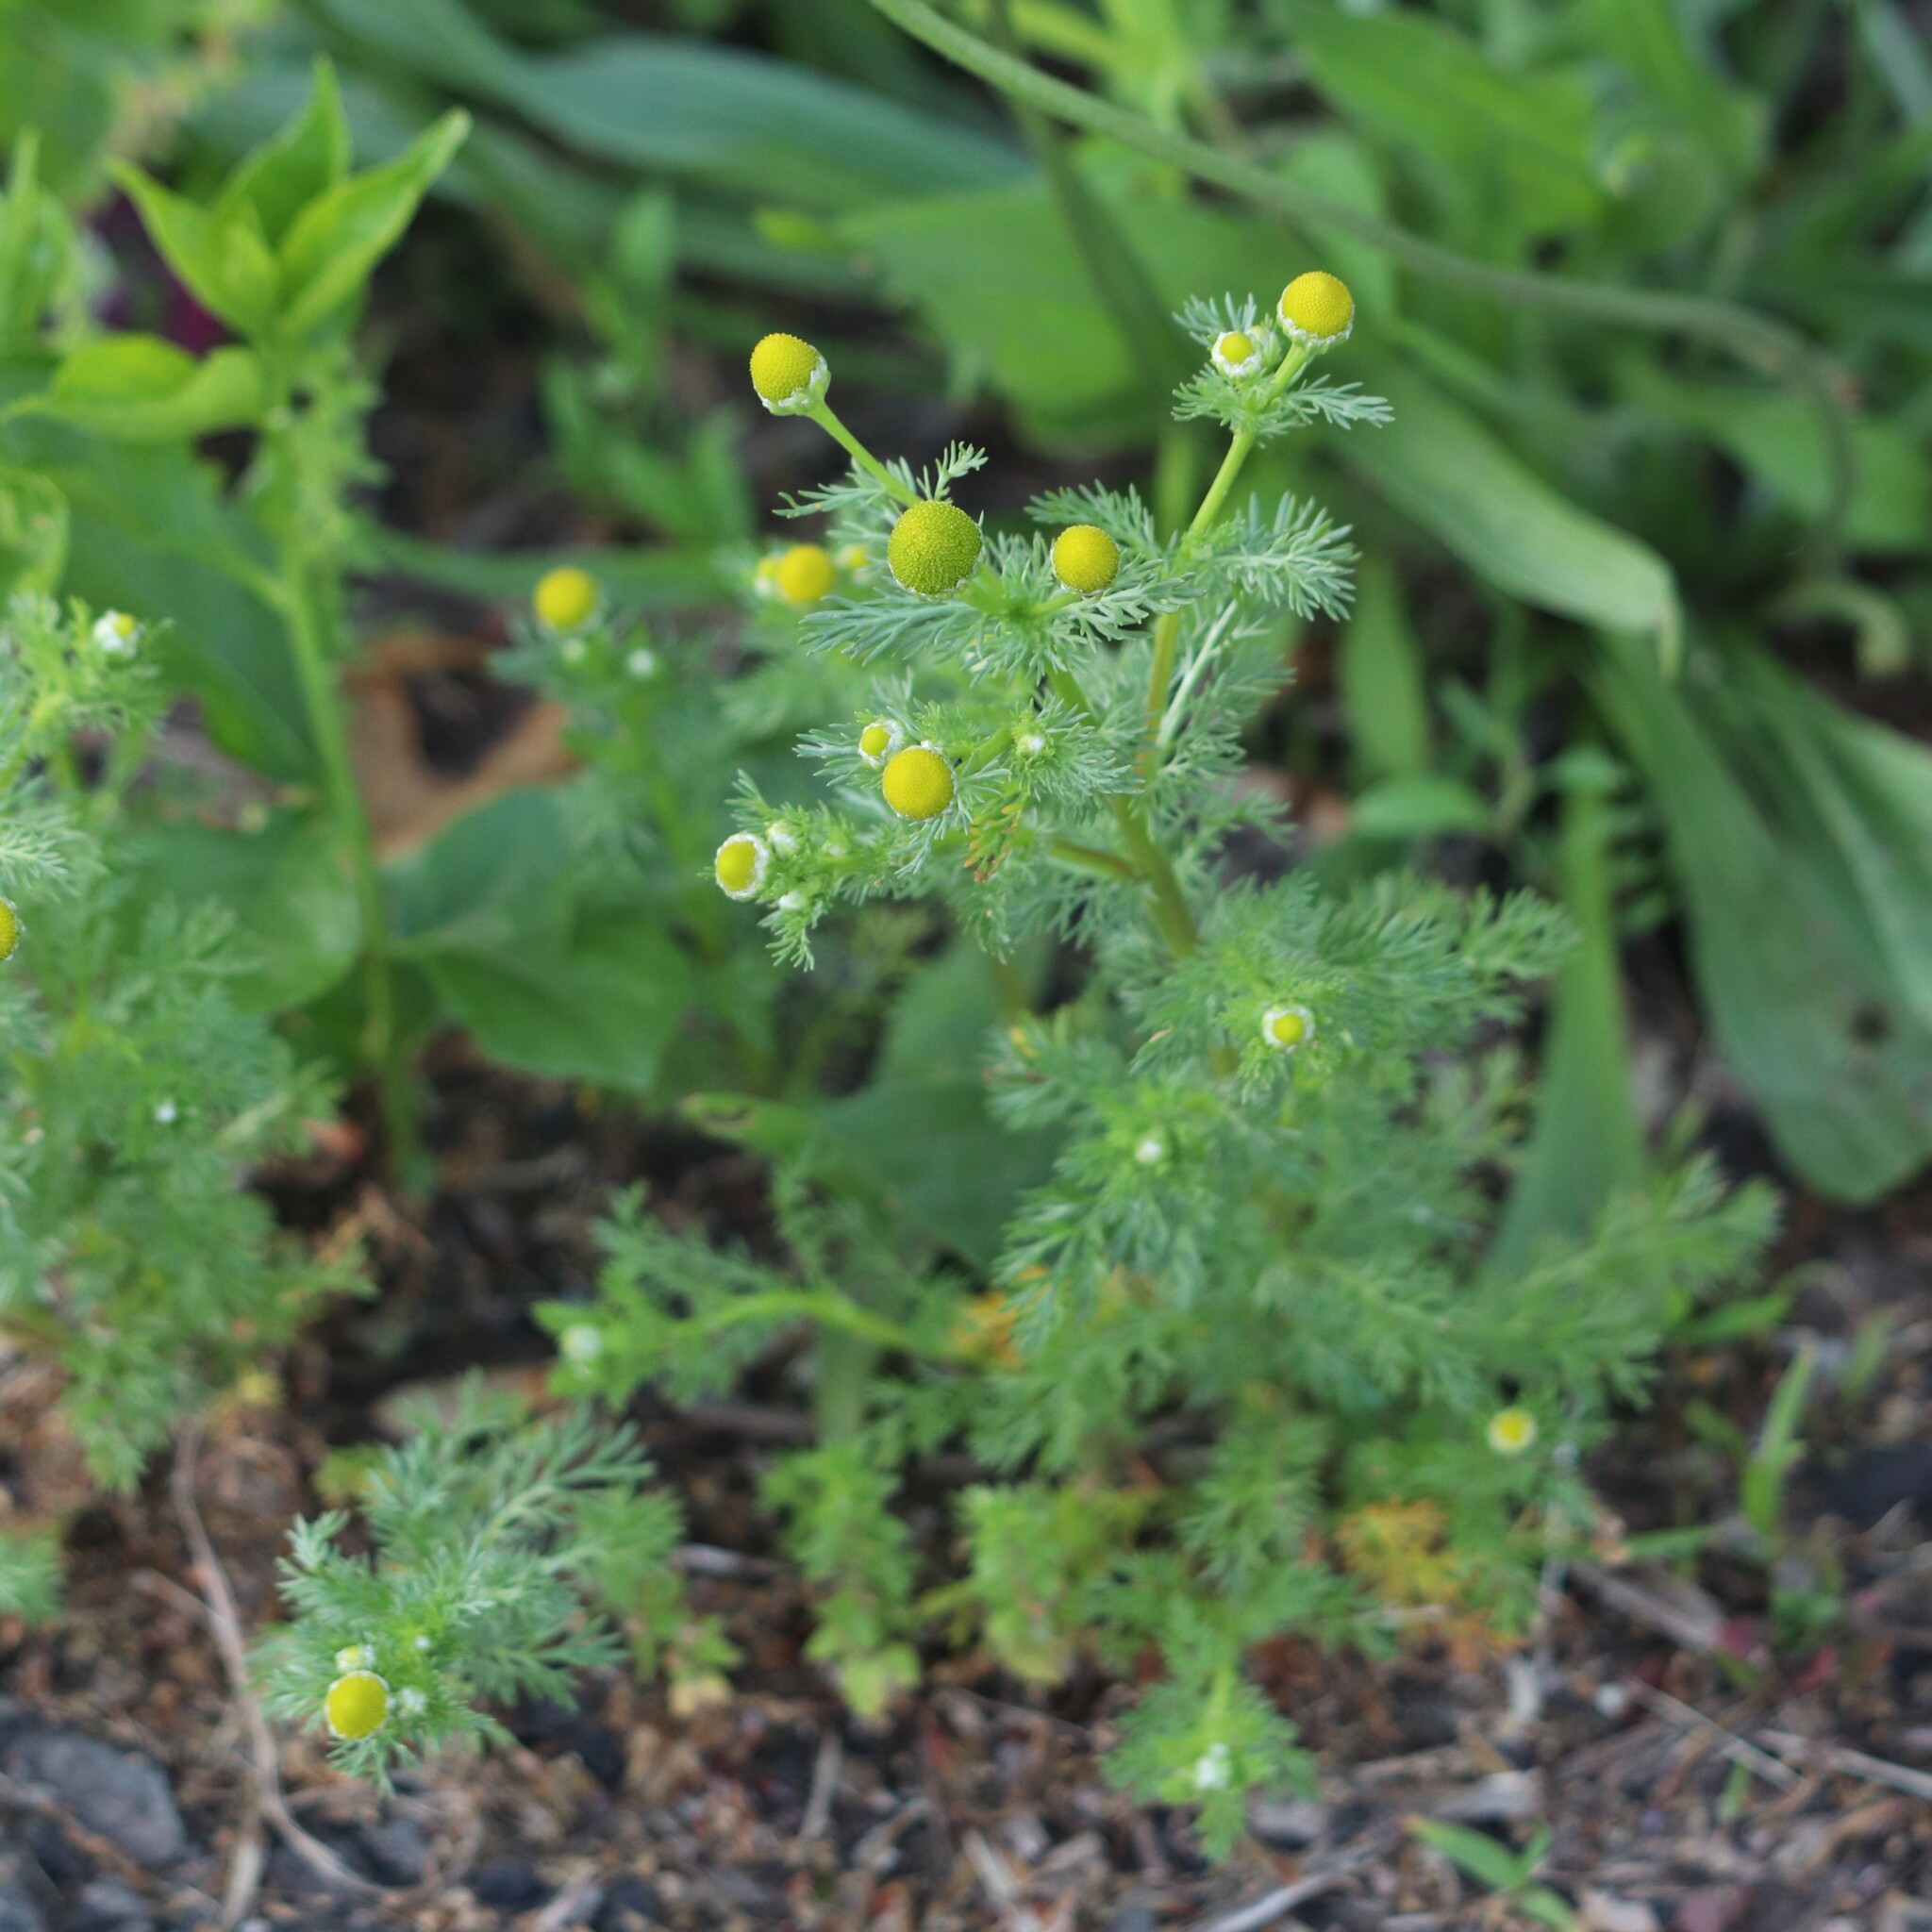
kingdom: Plantae
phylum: Tracheophyta
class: Magnoliopsida
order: Asterales
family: Asteraceae
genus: Matricaria
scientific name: Matricaria discoidea
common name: Disc mayweed
